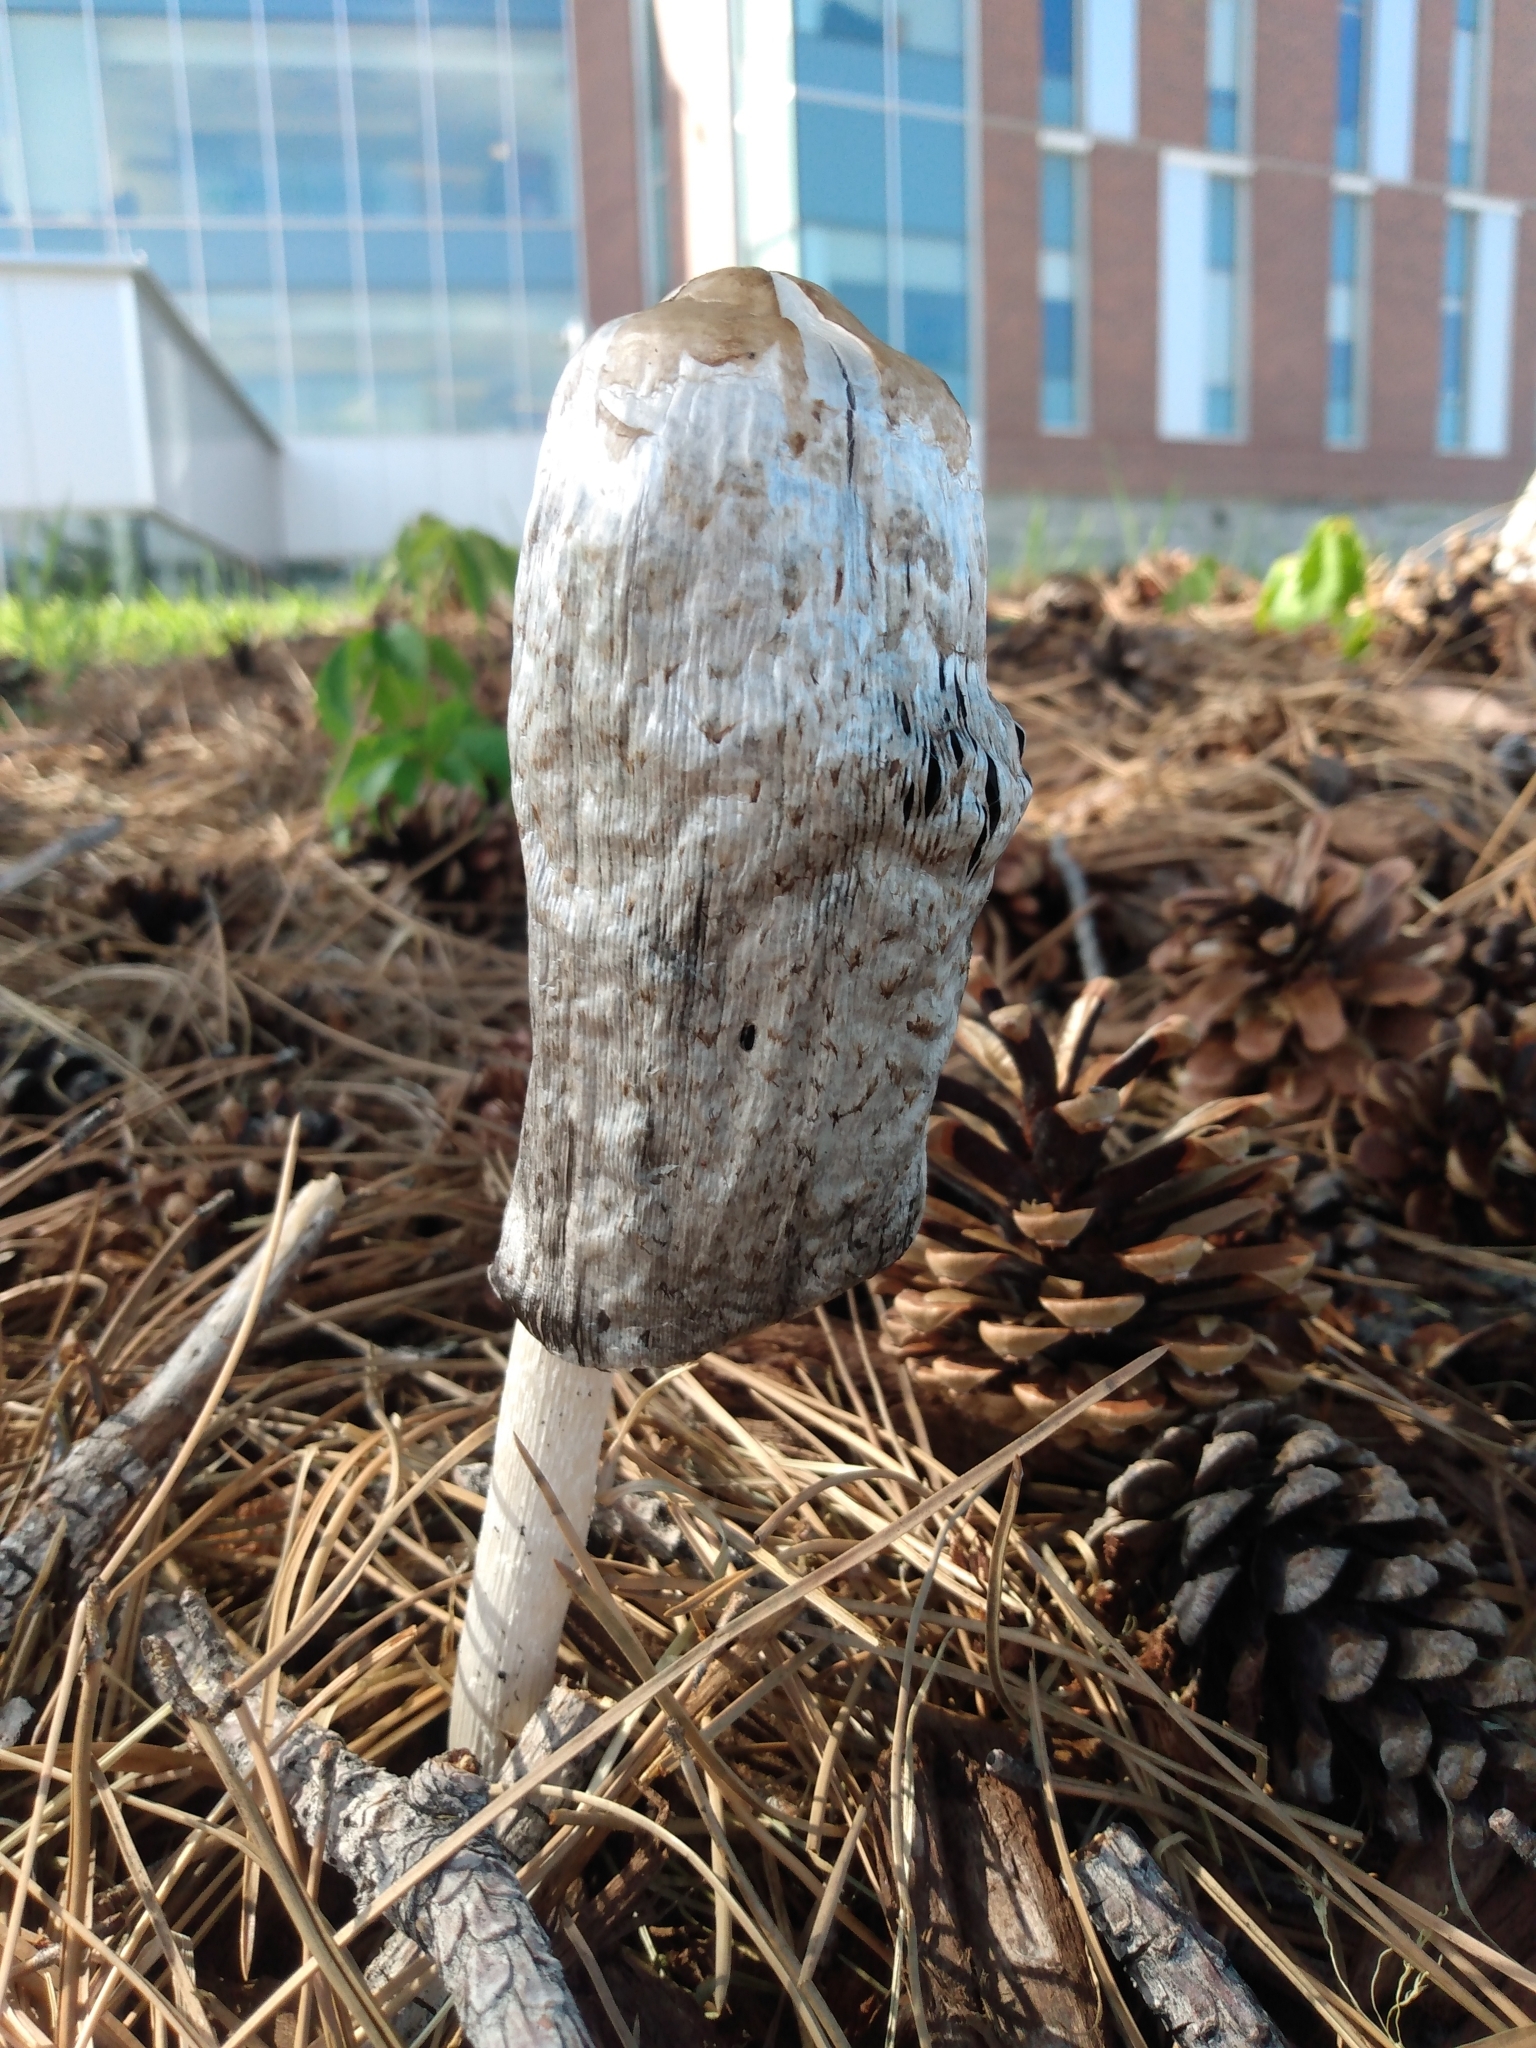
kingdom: Fungi
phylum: Basidiomycota
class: Agaricomycetes
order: Agaricales
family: Agaricaceae
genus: Coprinus
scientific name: Coprinus comatus
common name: Lawyer's wig
